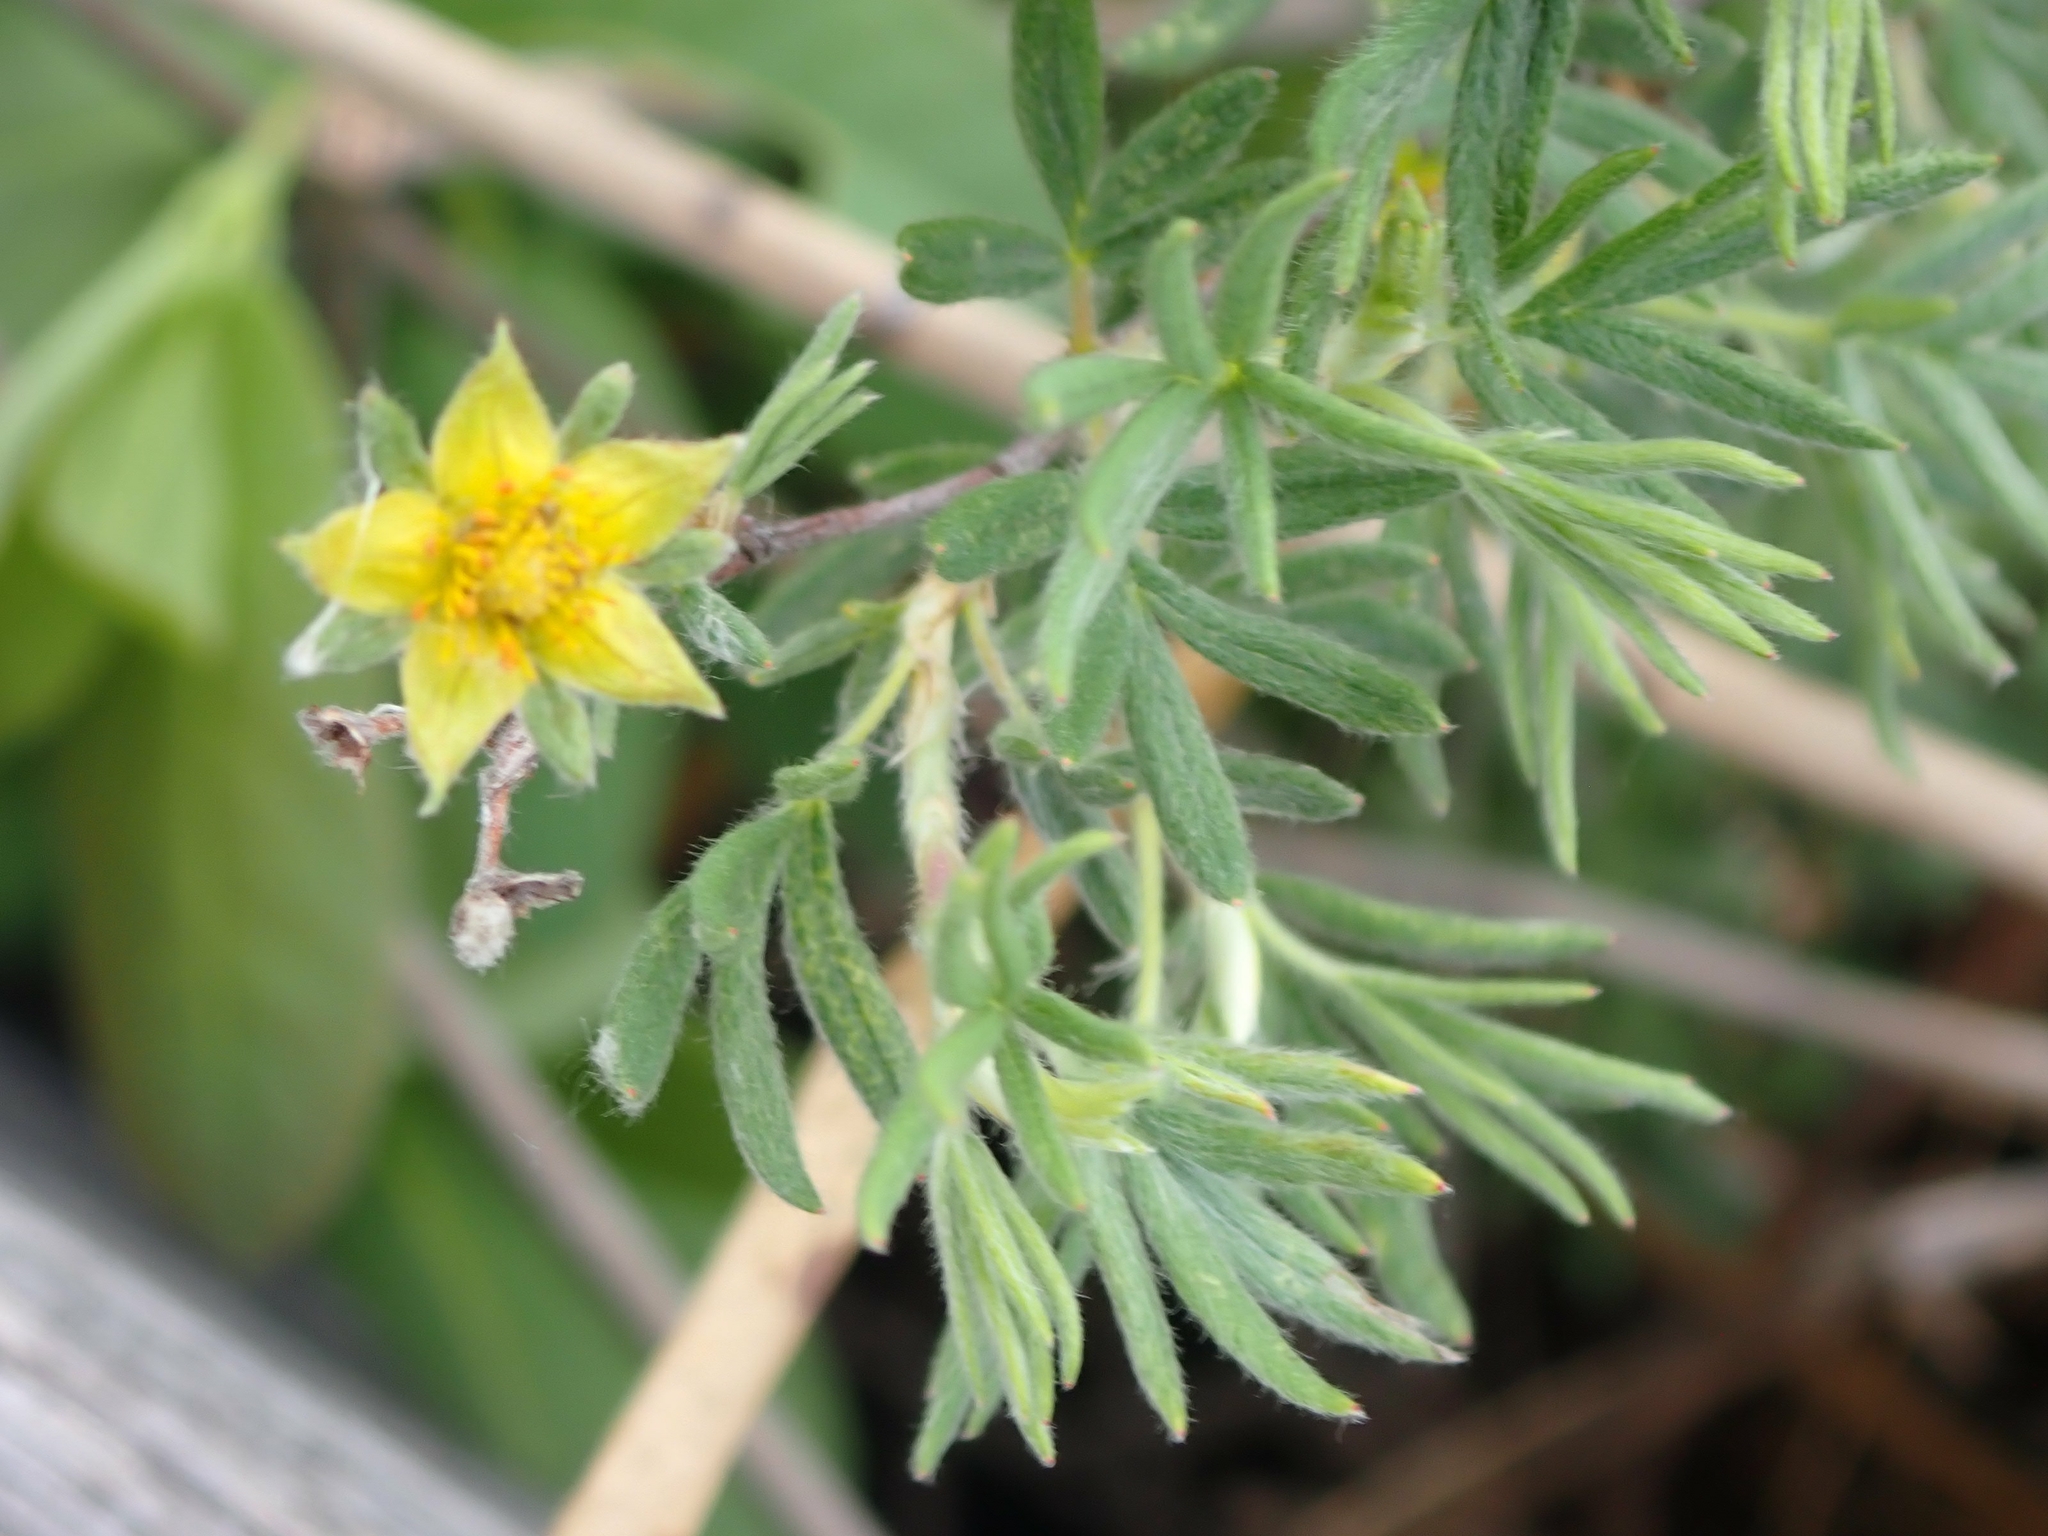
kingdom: Plantae
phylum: Tracheophyta
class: Magnoliopsida
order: Rosales
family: Rosaceae
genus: Dasiphora
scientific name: Dasiphora fruticosa
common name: Shrubby cinquefoil
